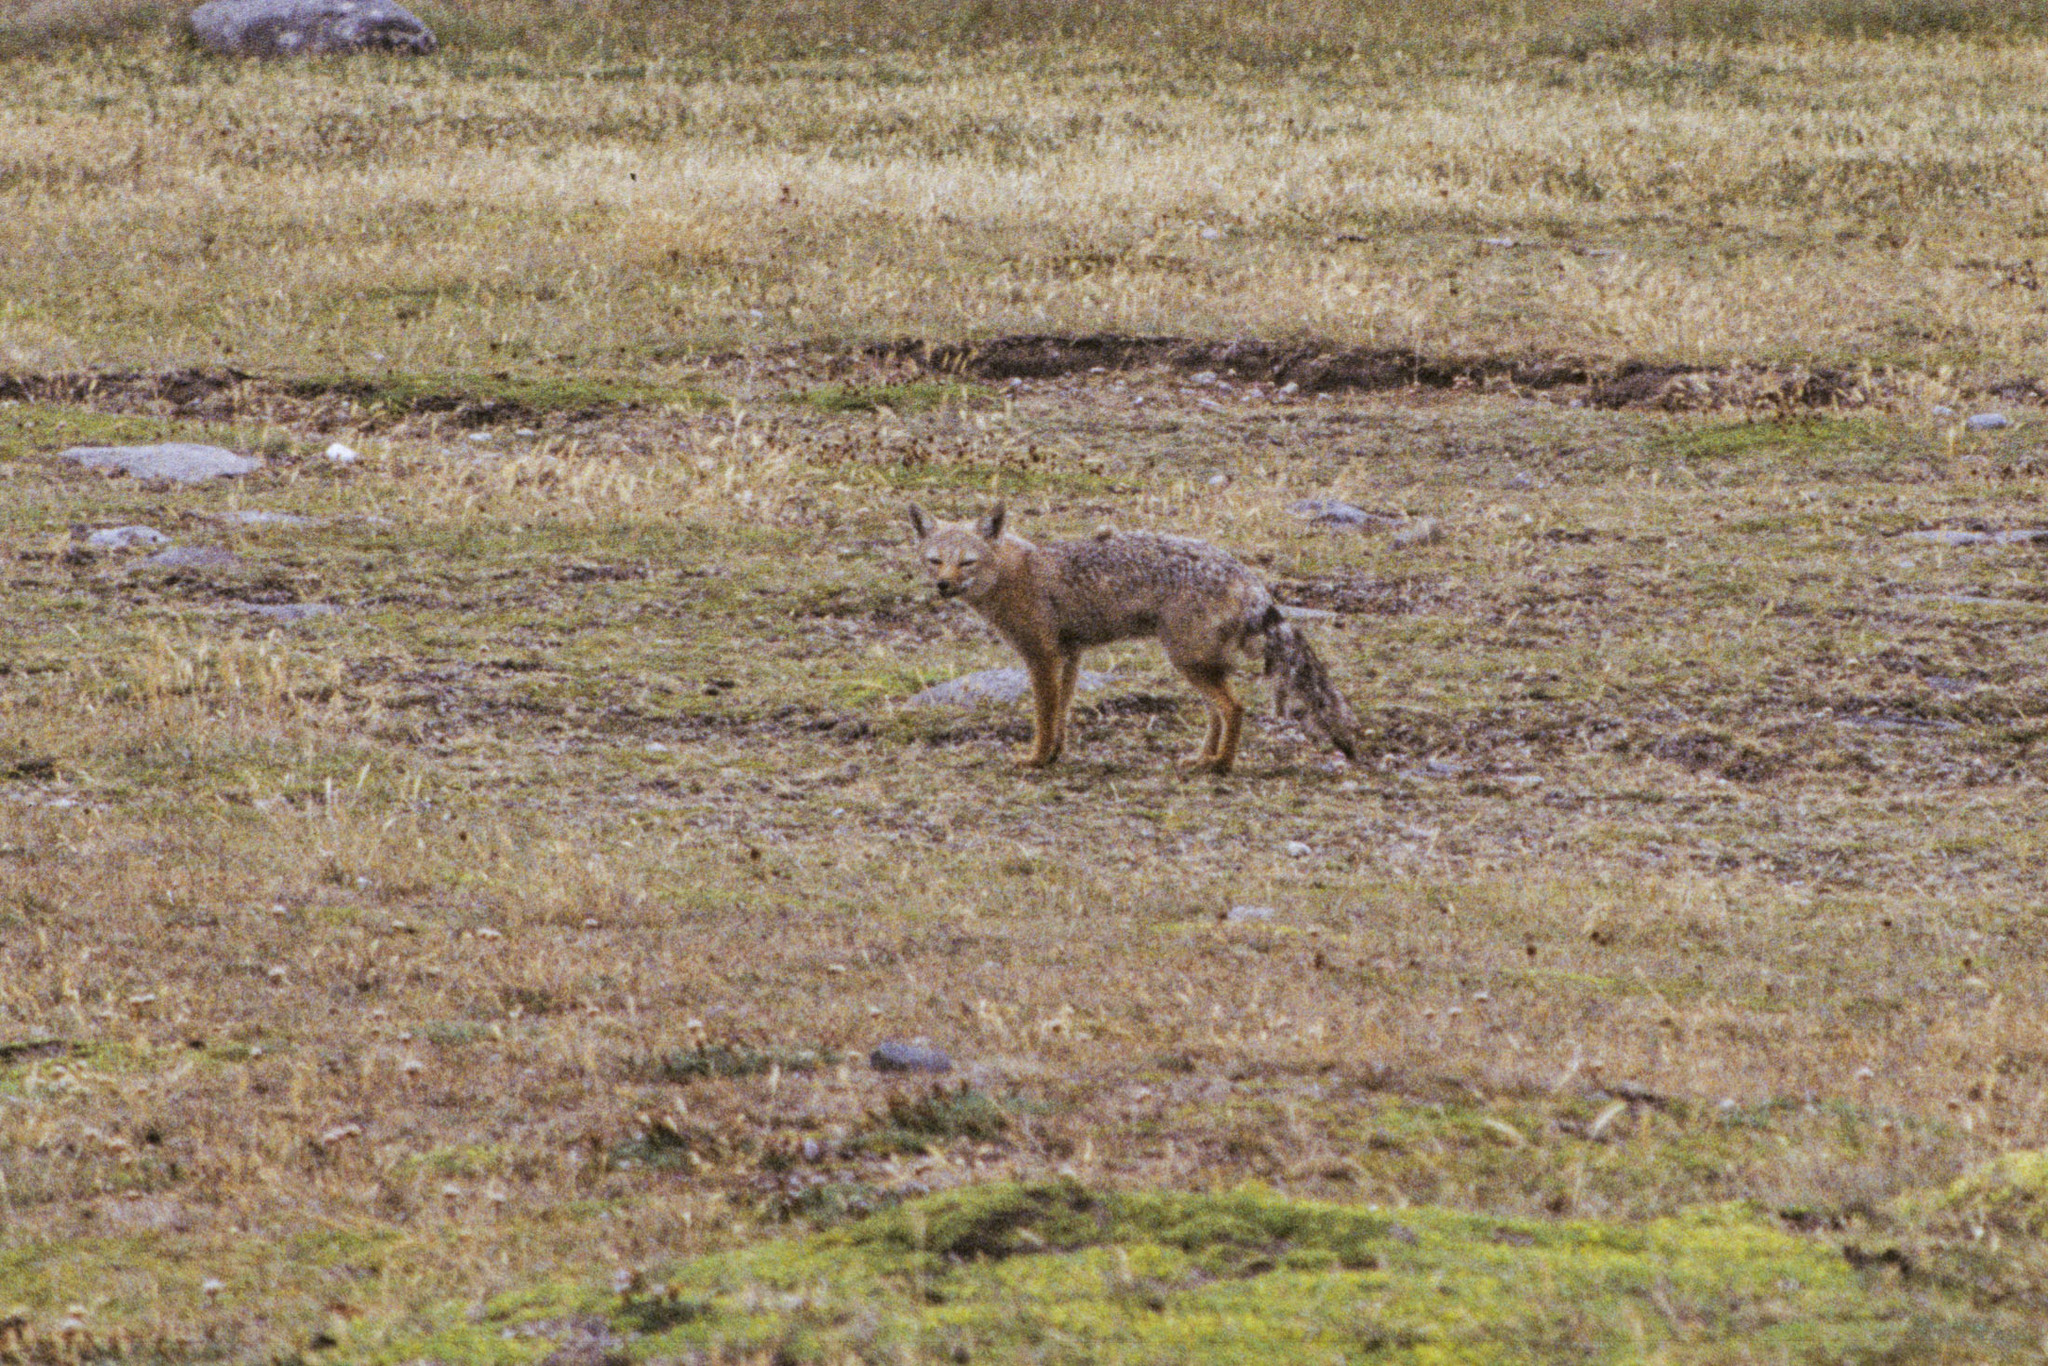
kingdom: Animalia
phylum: Chordata
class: Mammalia
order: Carnivora
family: Canidae
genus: Lycalopex
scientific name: Lycalopex gymnocercus
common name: Pampas fox
